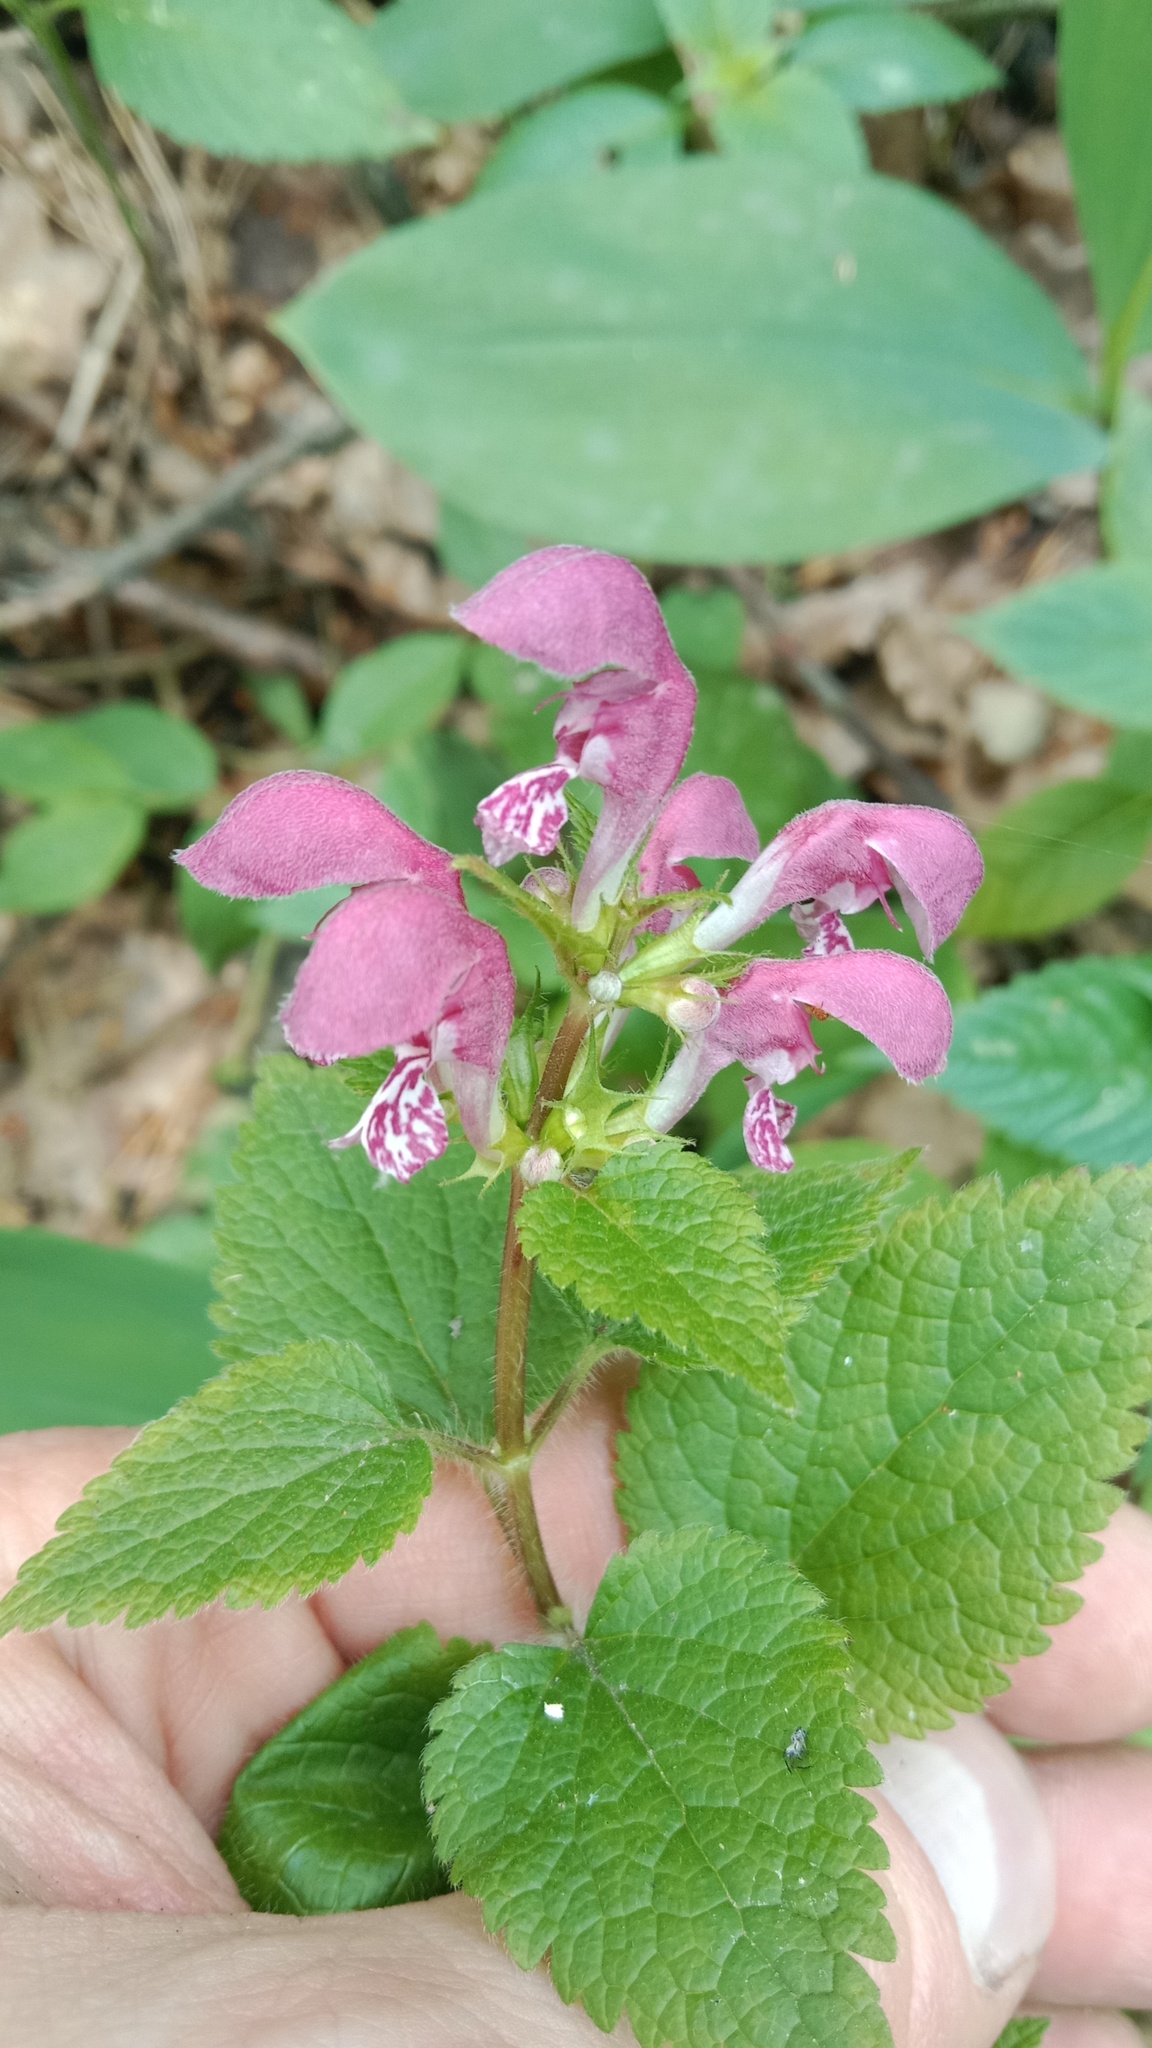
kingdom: Plantae
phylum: Tracheophyta
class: Magnoliopsida
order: Lamiales
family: Lamiaceae
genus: Lamium
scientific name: Lamium maculatum
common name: Spotted dead-nettle
